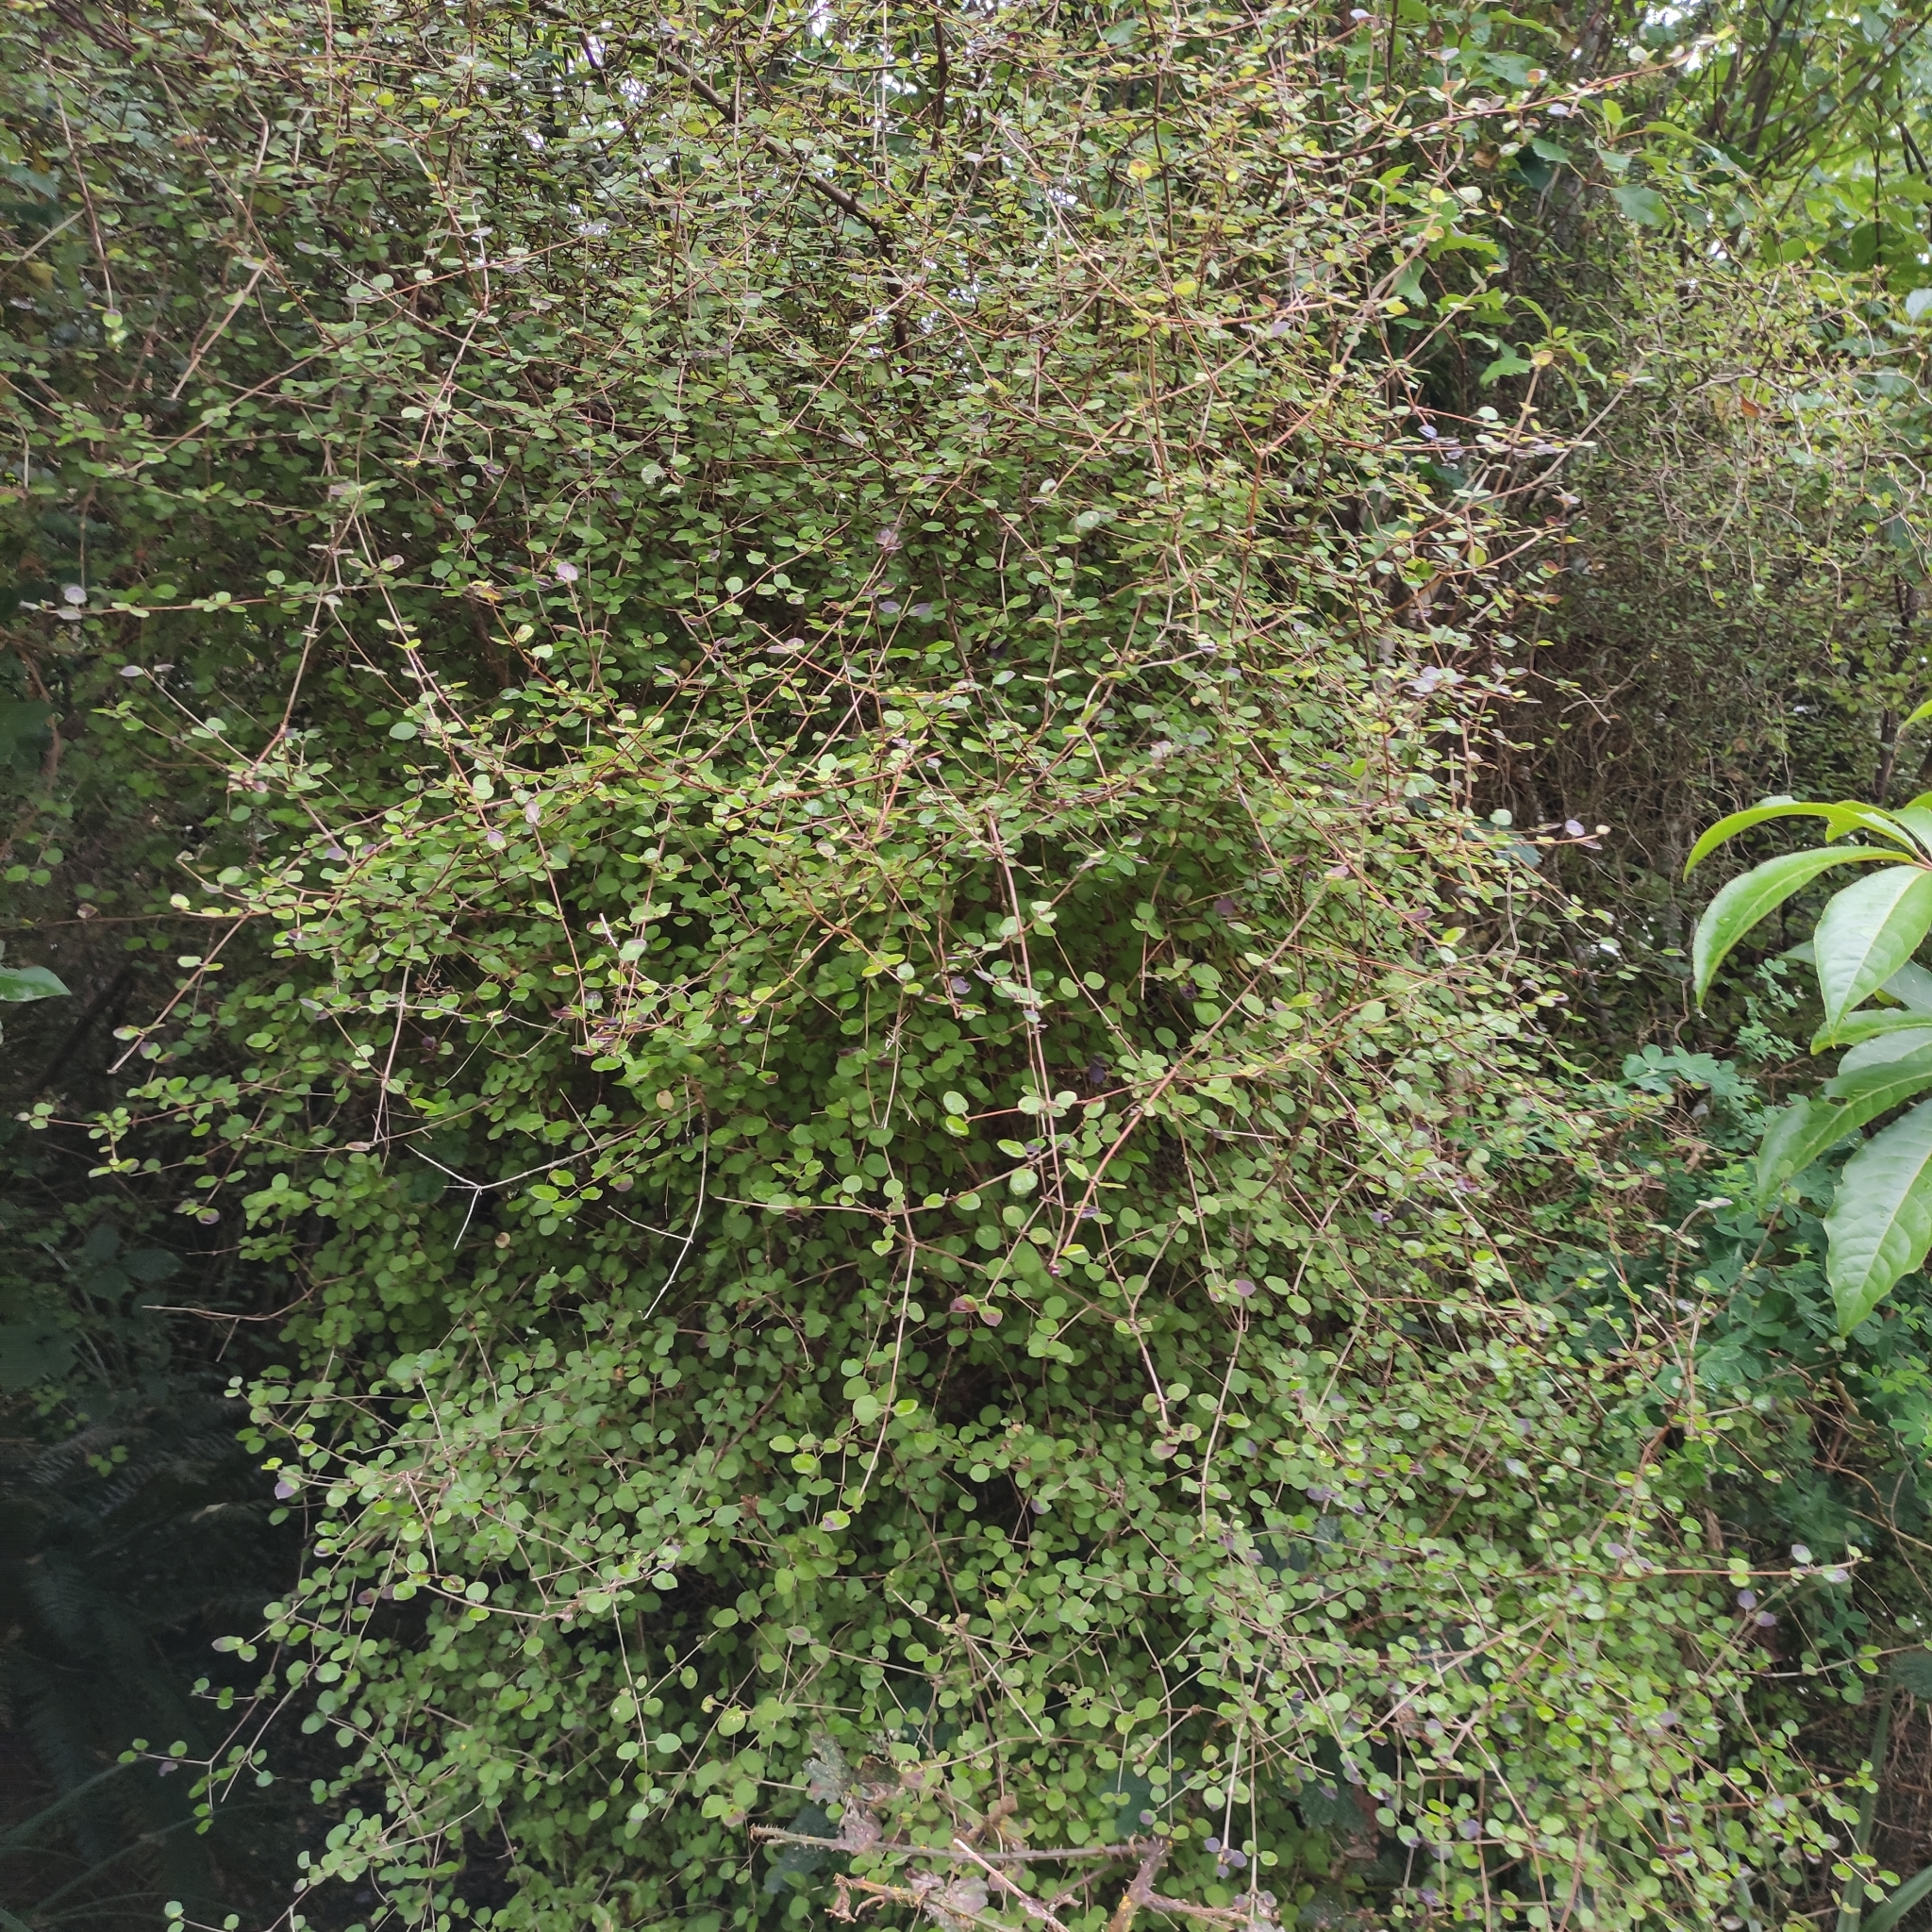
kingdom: Plantae
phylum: Tracheophyta
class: Magnoliopsida
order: Gentianales
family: Rubiaceae
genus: Coprosma
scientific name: Coprosma rotundifolia
